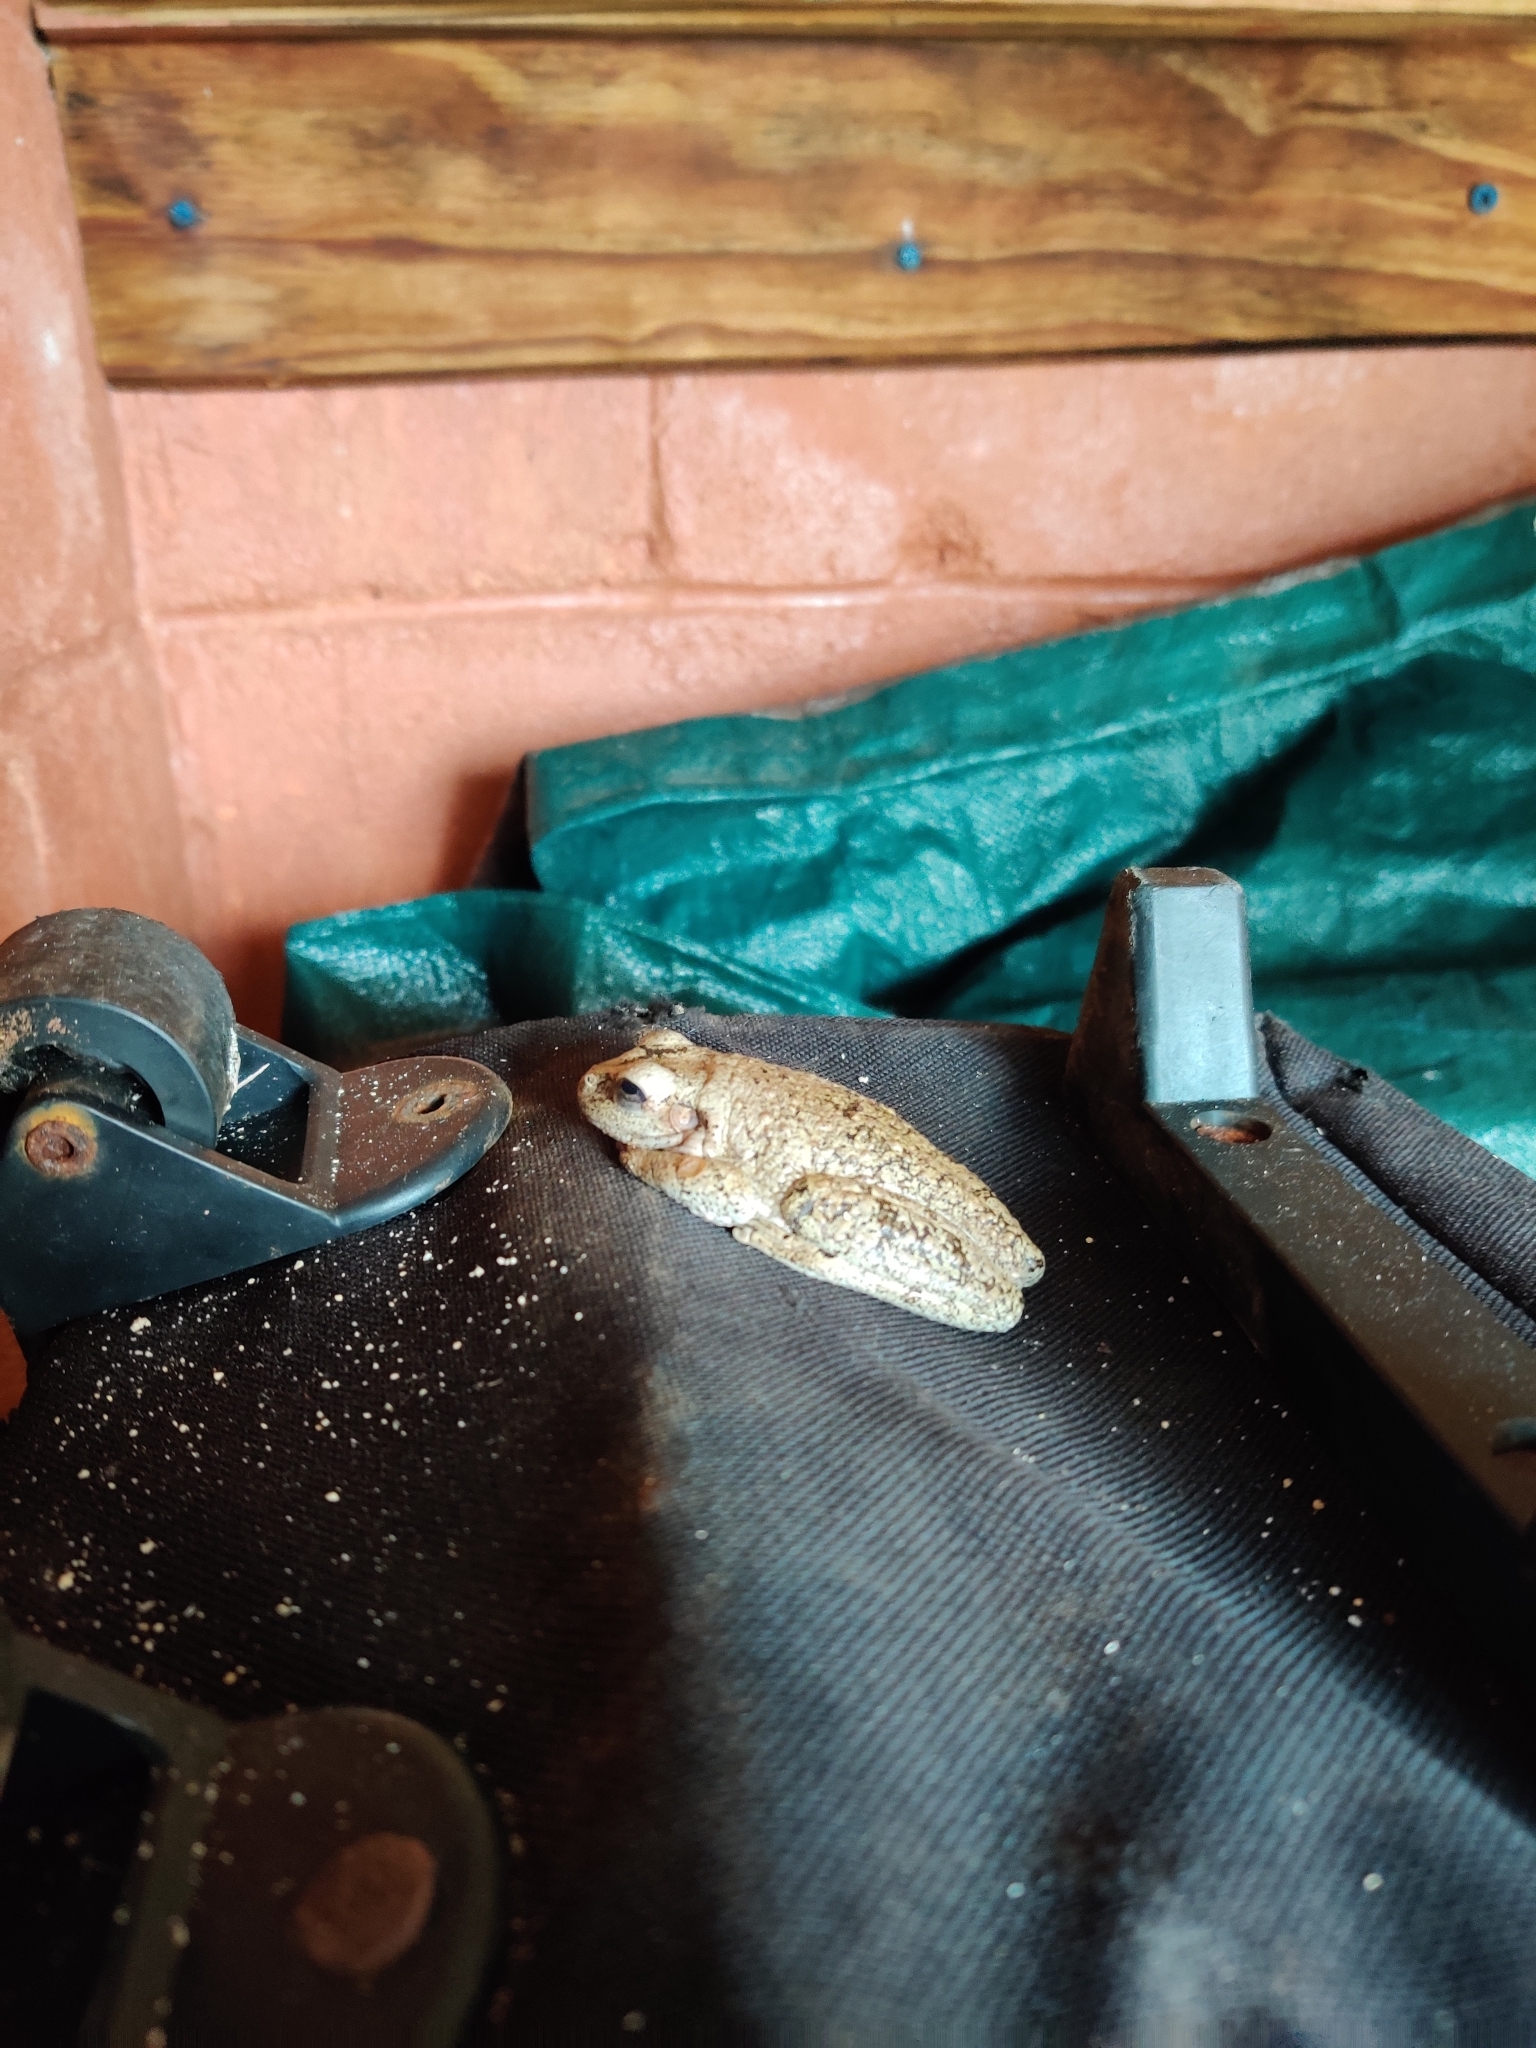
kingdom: Animalia
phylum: Chordata
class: Amphibia
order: Anura
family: Hylidae
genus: Osteopilus
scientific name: Osteopilus septentrionalis
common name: Cuban treefrog
